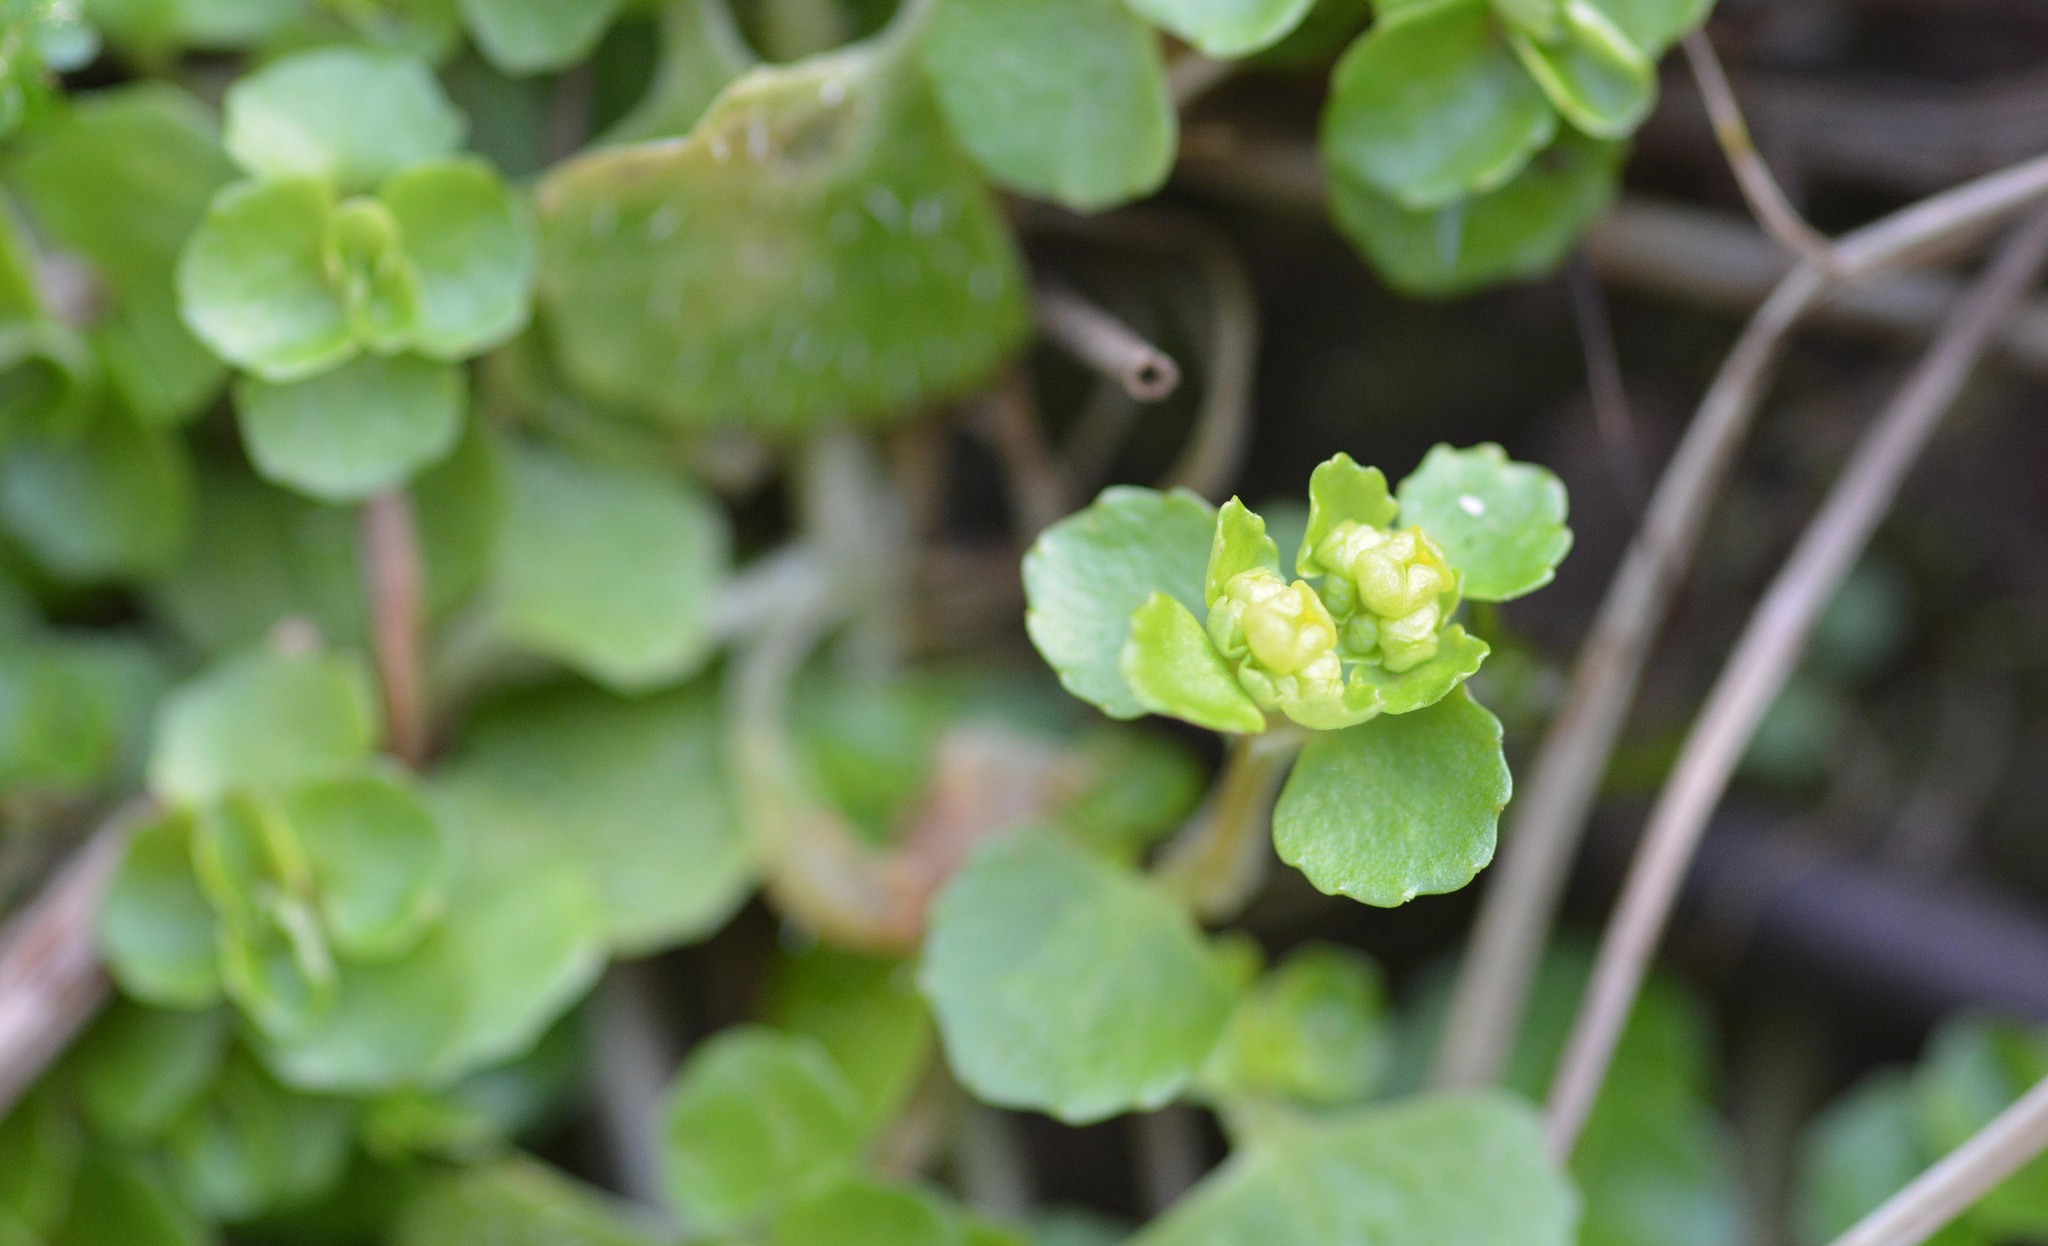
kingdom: Plantae
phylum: Tracheophyta
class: Magnoliopsida
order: Saxifragales
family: Saxifragaceae
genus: Chrysosplenium
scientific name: Chrysosplenium oppositifolium
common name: Opposite-leaved golden-saxifrage
